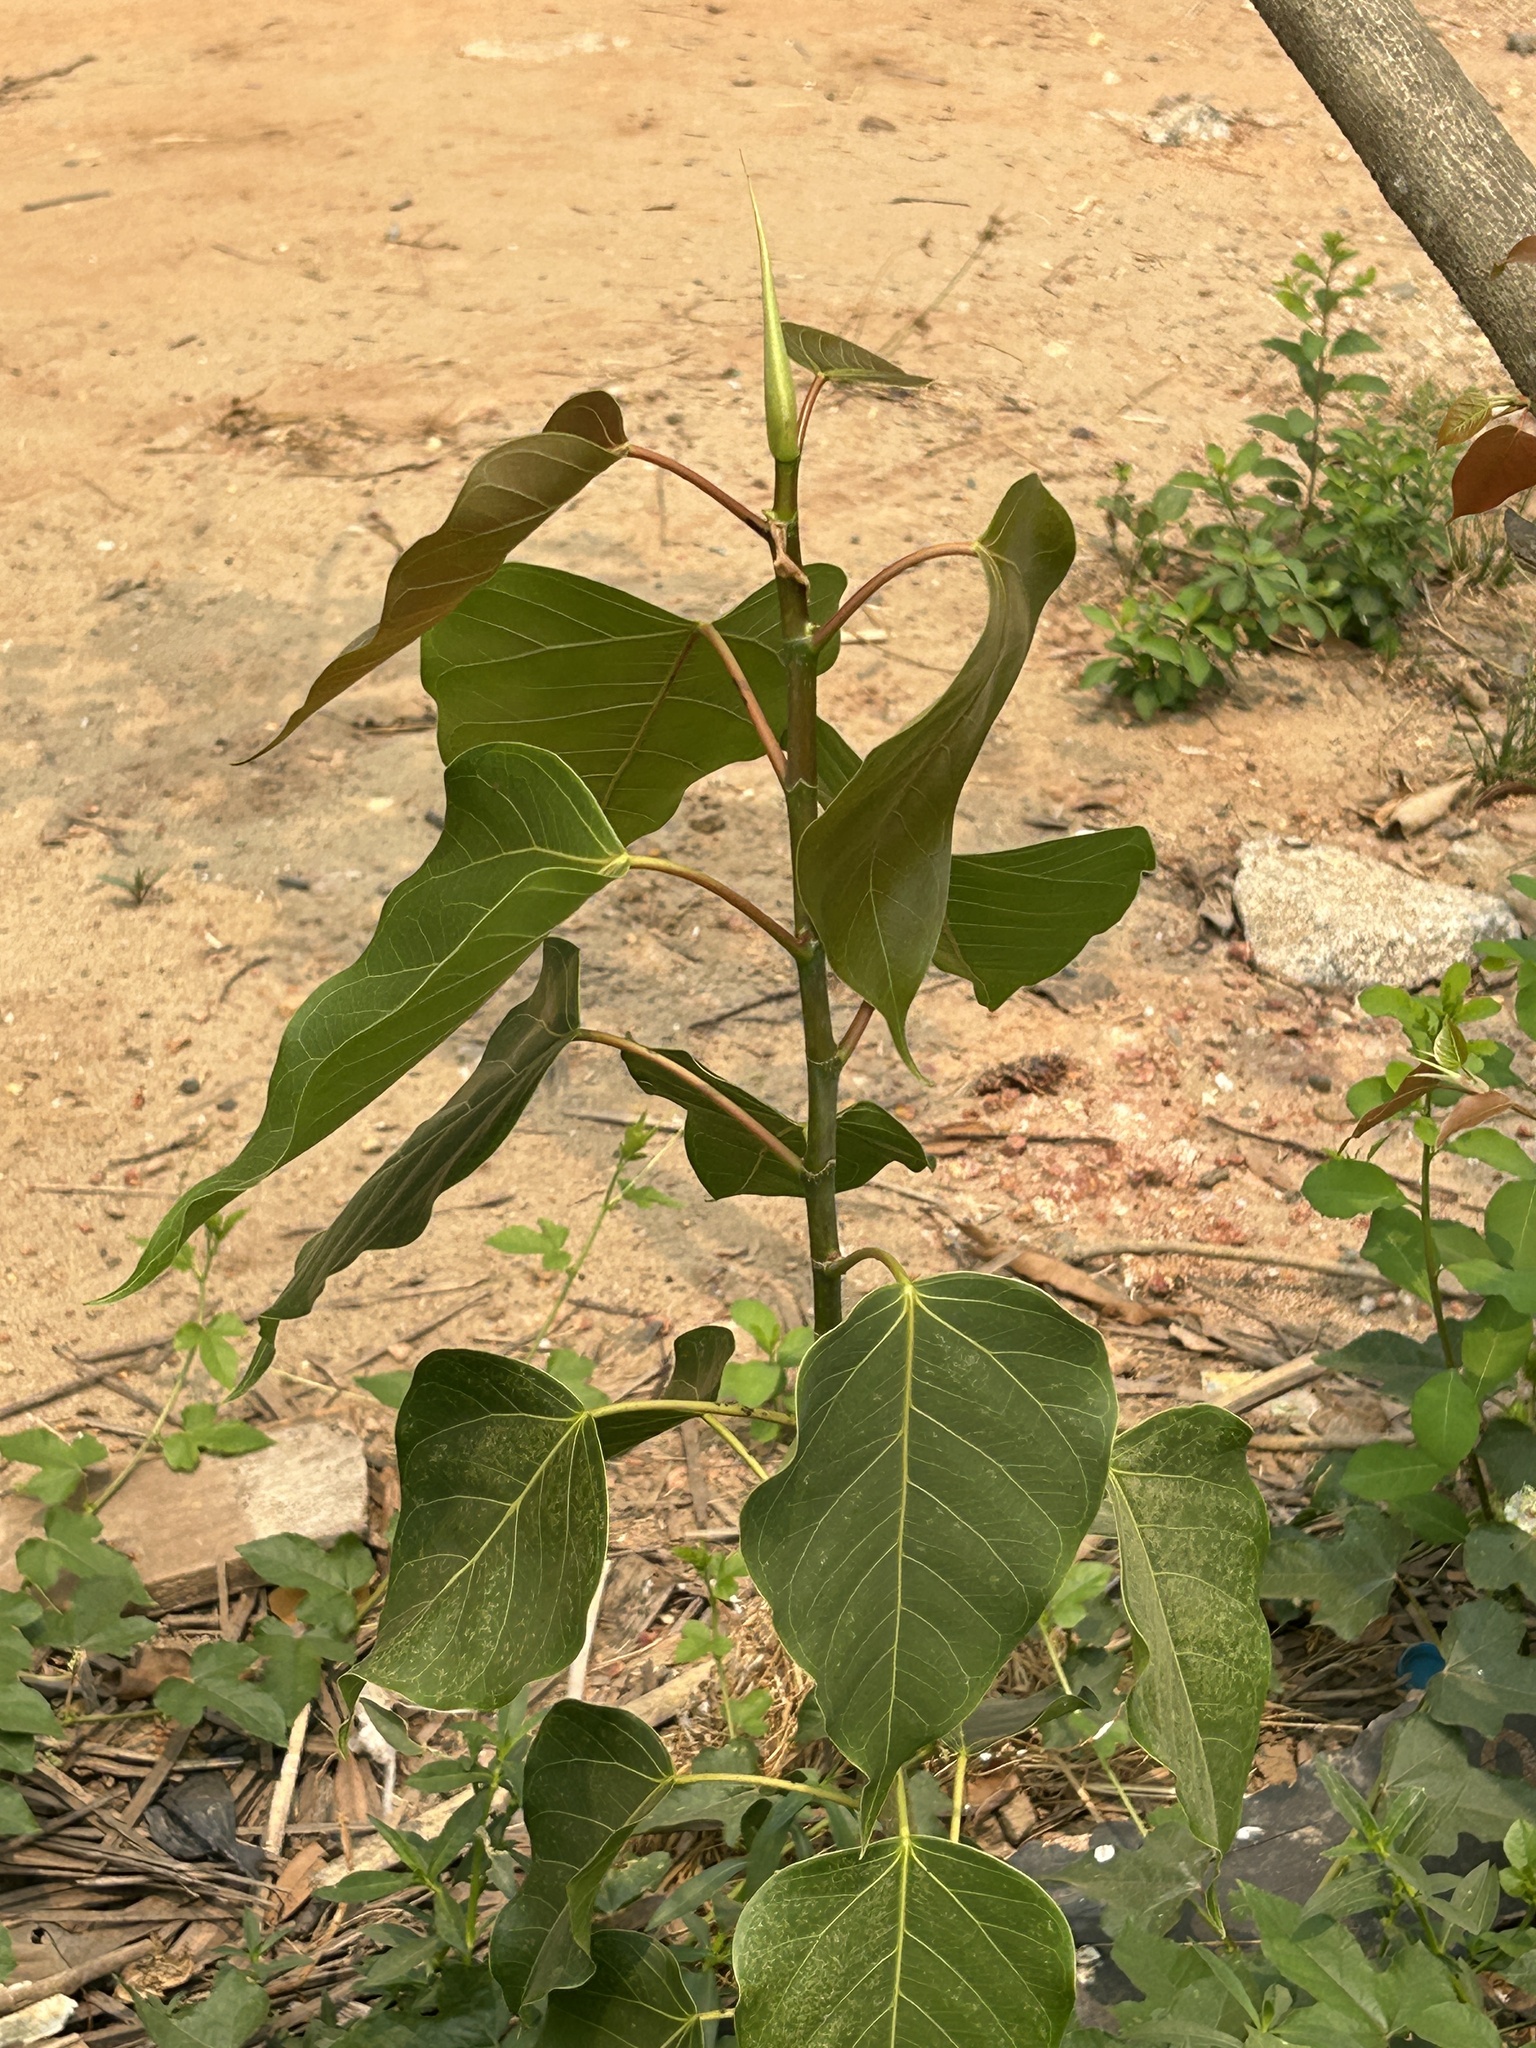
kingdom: Plantae
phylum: Tracheophyta
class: Magnoliopsida
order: Rosales
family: Moraceae
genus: Ficus
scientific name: Ficus rumphii
